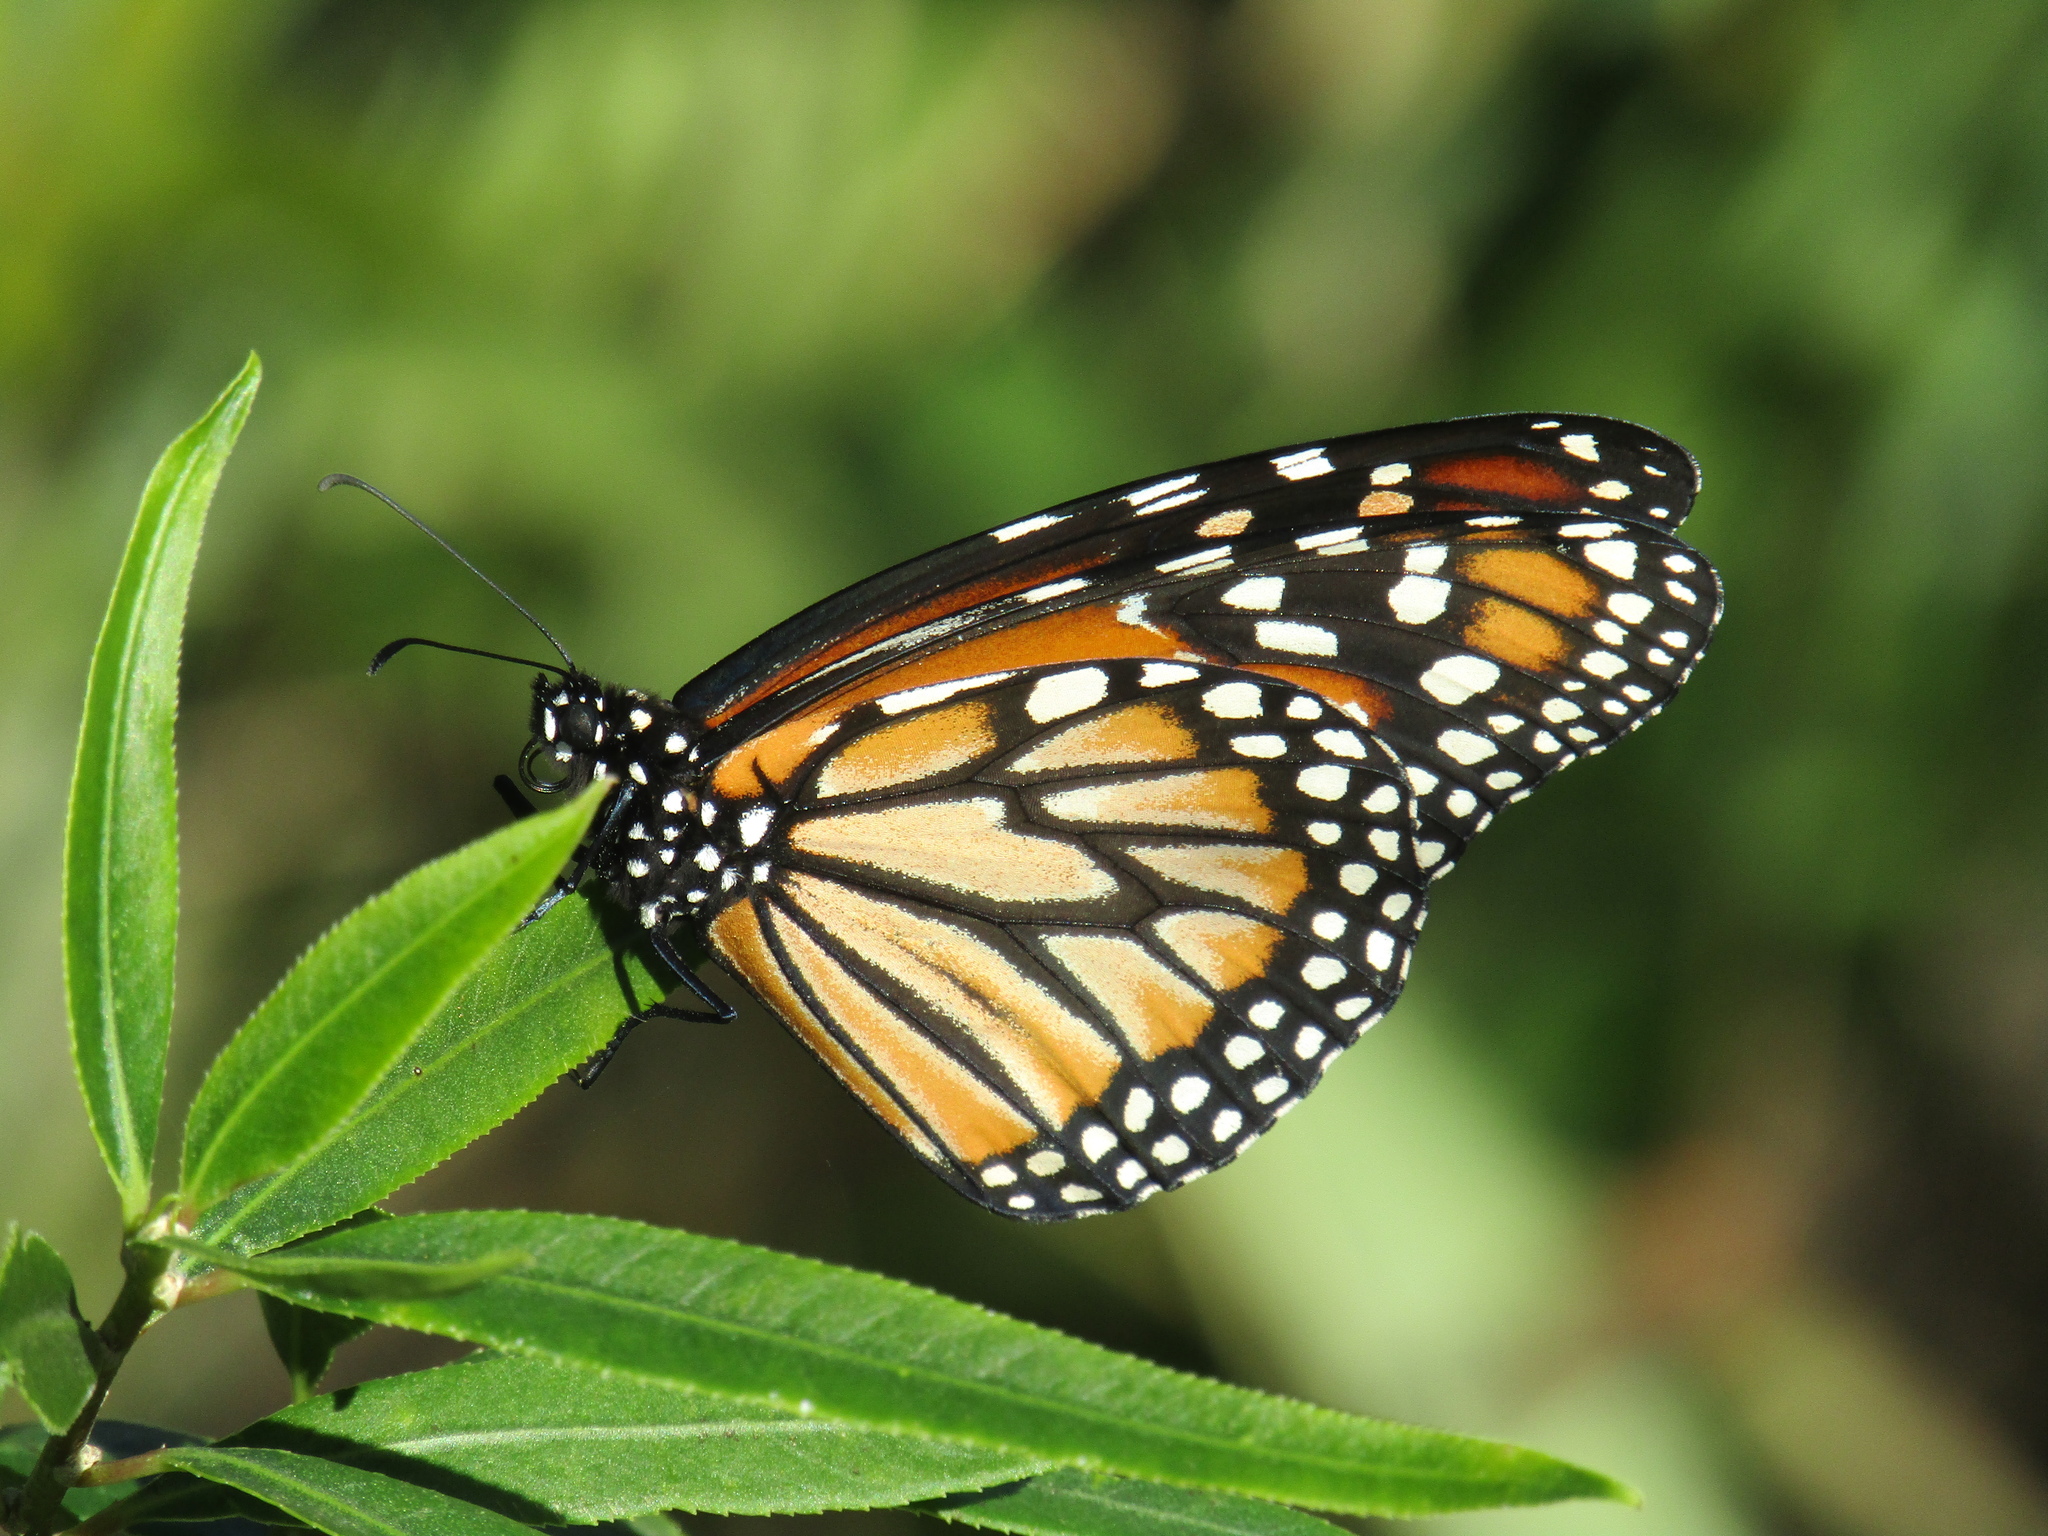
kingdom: Animalia
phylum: Arthropoda
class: Insecta
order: Lepidoptera
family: Nymphalidae
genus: Danaus
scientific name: Danaus erippus
